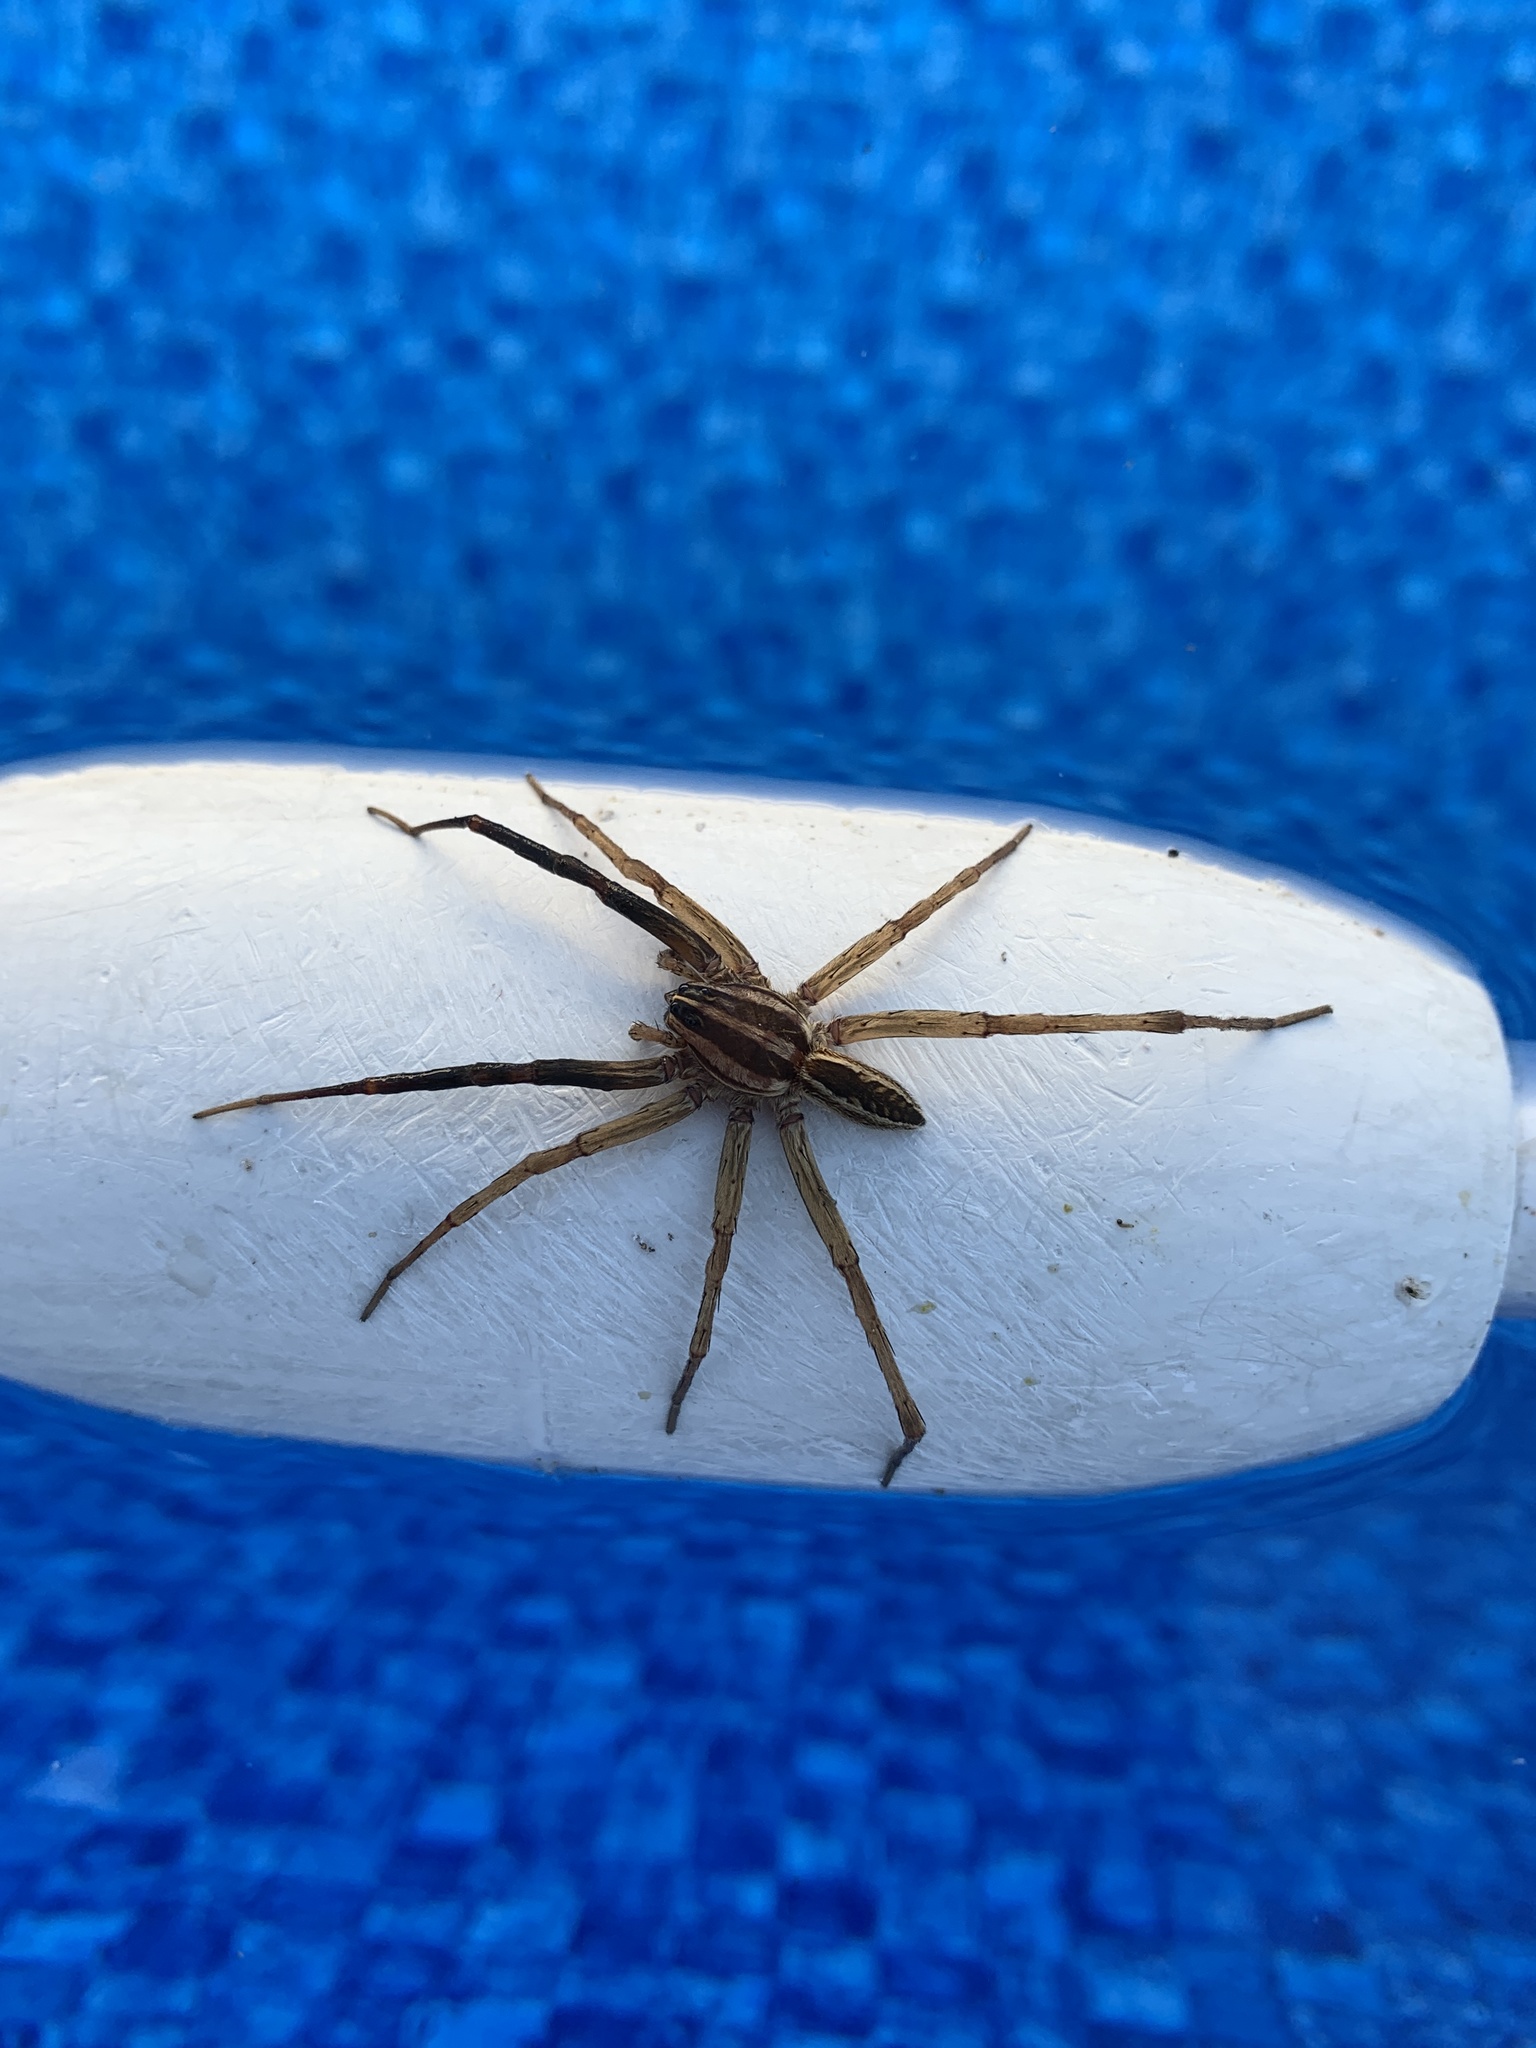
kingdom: Animalia
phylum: Arthropoda
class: Arachnida
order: Araneae
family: Lycosidae
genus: Rabidosa
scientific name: Rabidosa rabida
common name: Rabid wolf spider
